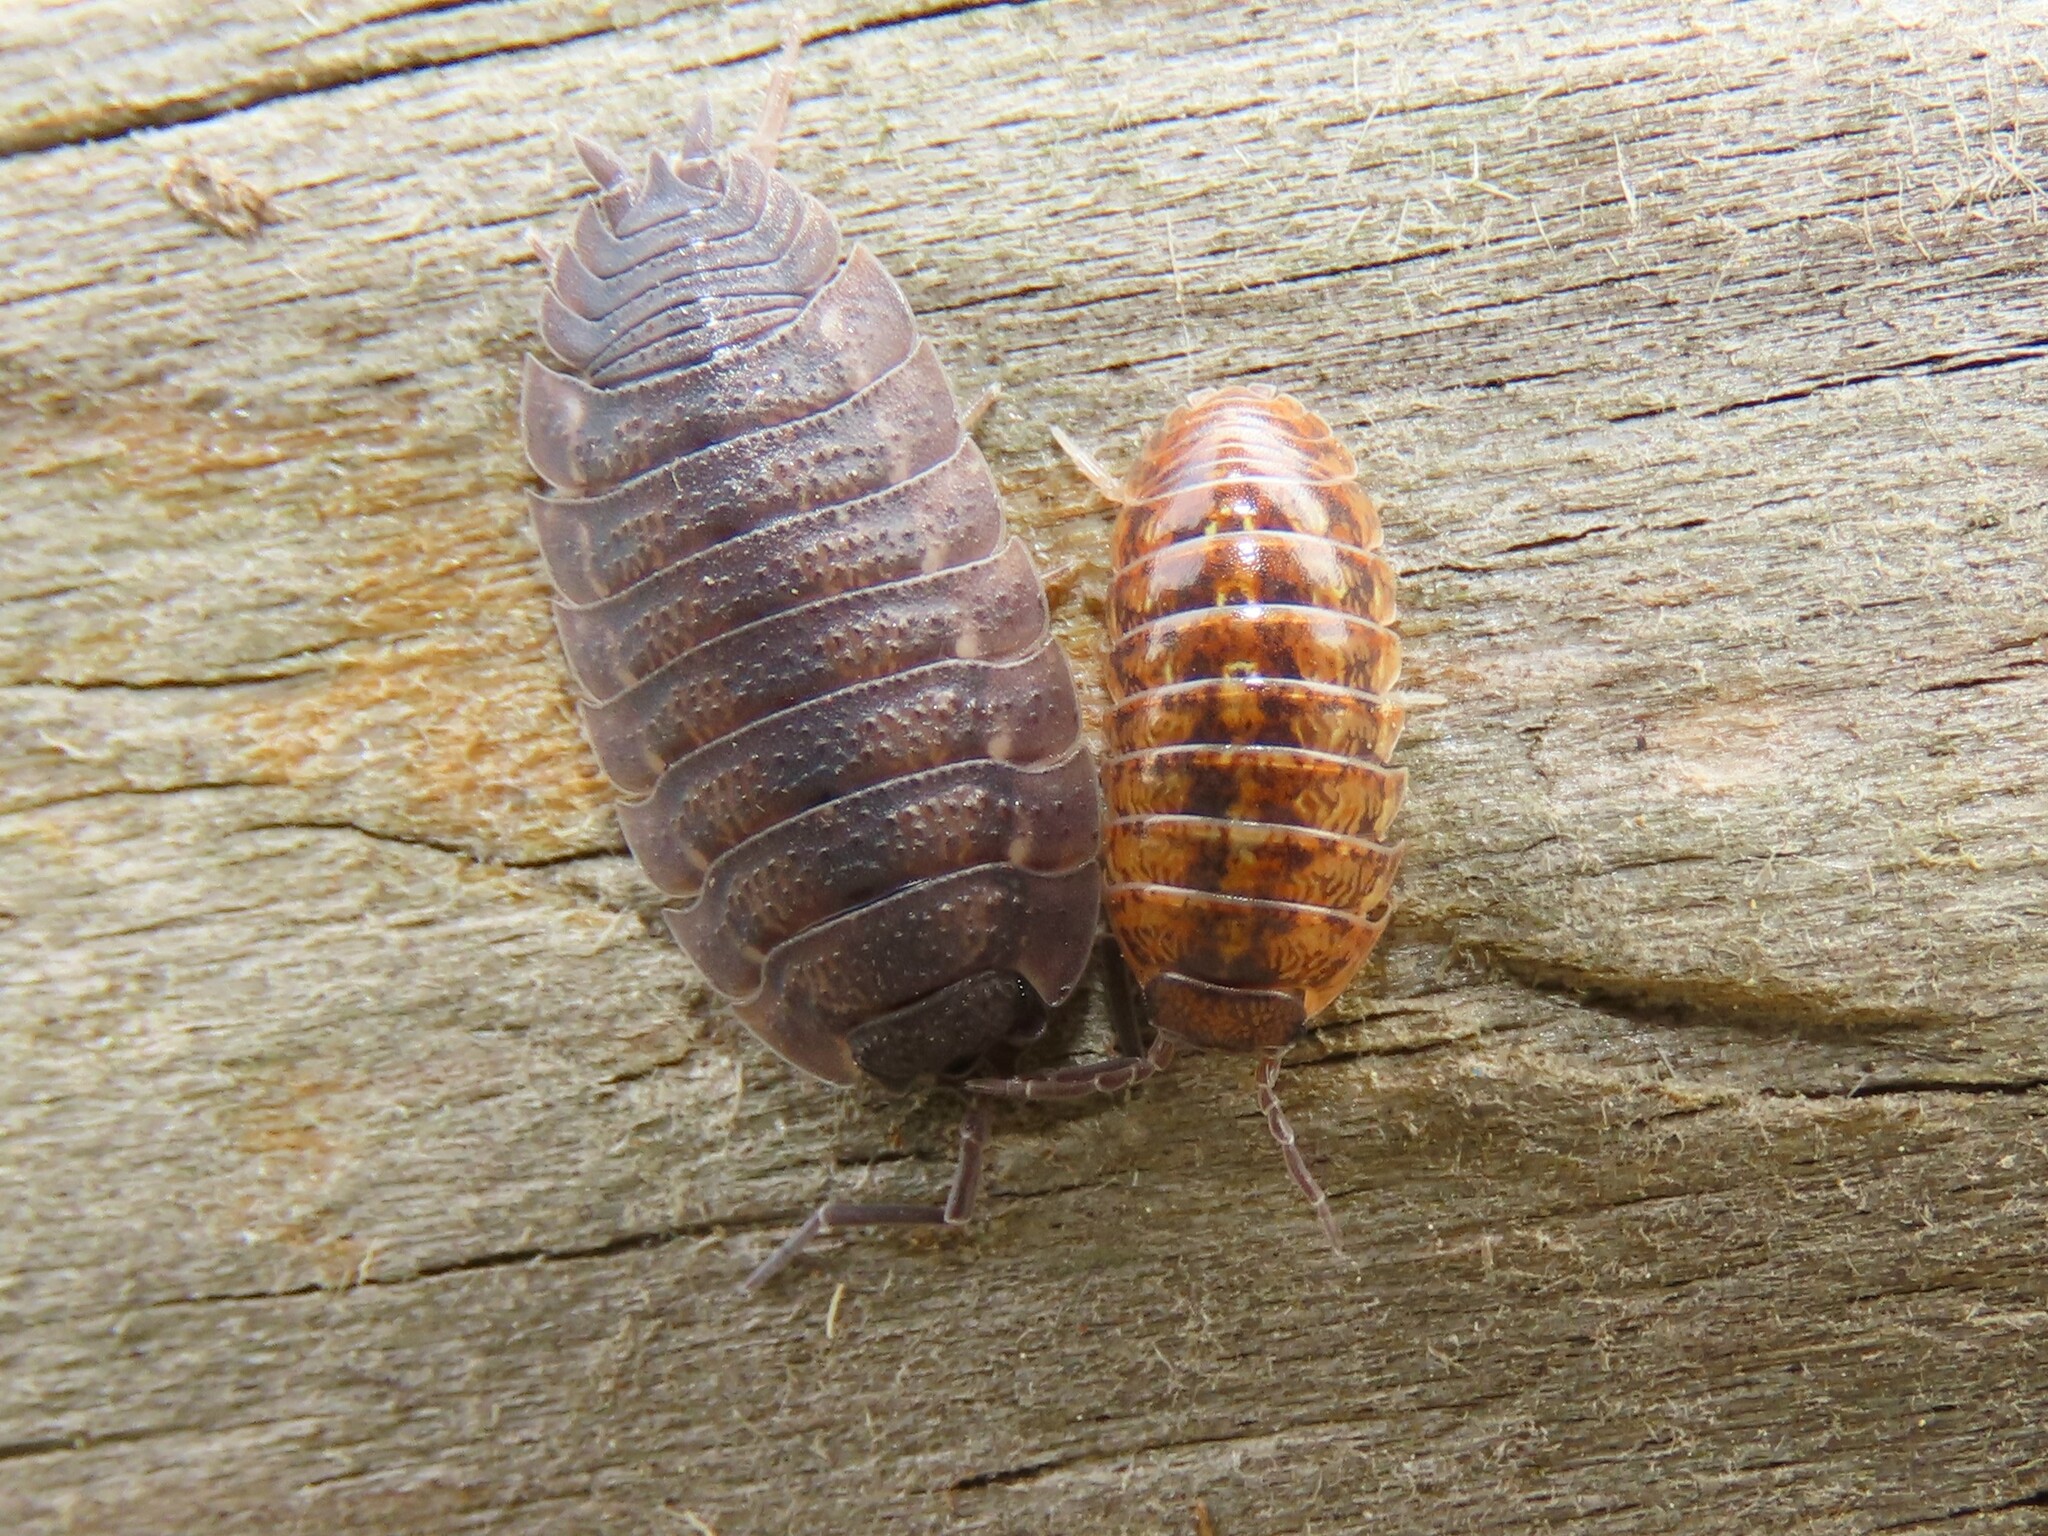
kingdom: Animalia
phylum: Arthropoda
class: Malacostraca
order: Isopoda
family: Armadillidiidae
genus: Armadillidium
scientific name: Armadillidium vulgare
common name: Common pill woodlouse
